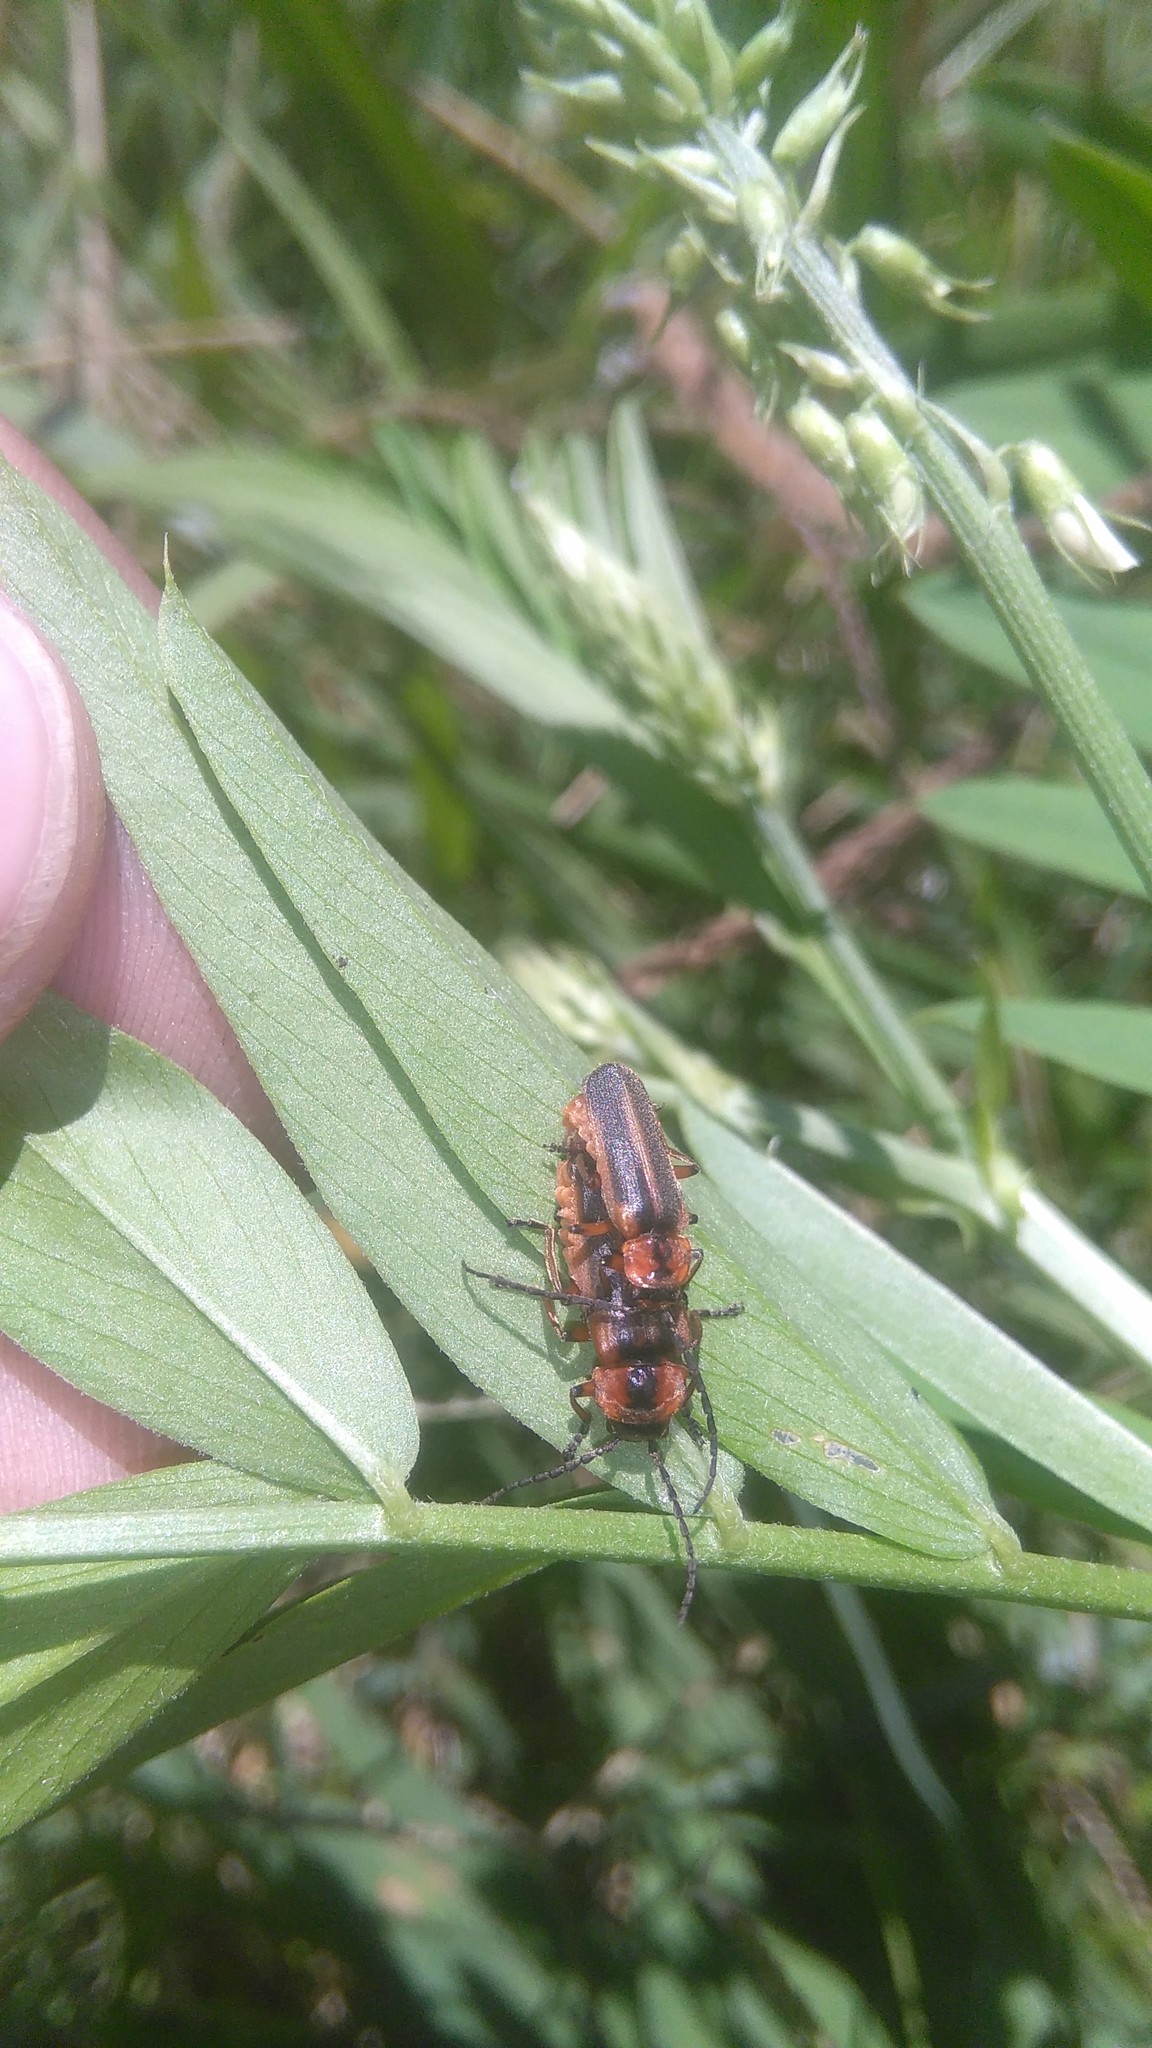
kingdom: Animalia
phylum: Arthropoda
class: Insecta
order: Coleoptera
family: Cantharidae
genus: Discodon
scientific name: Discodon
